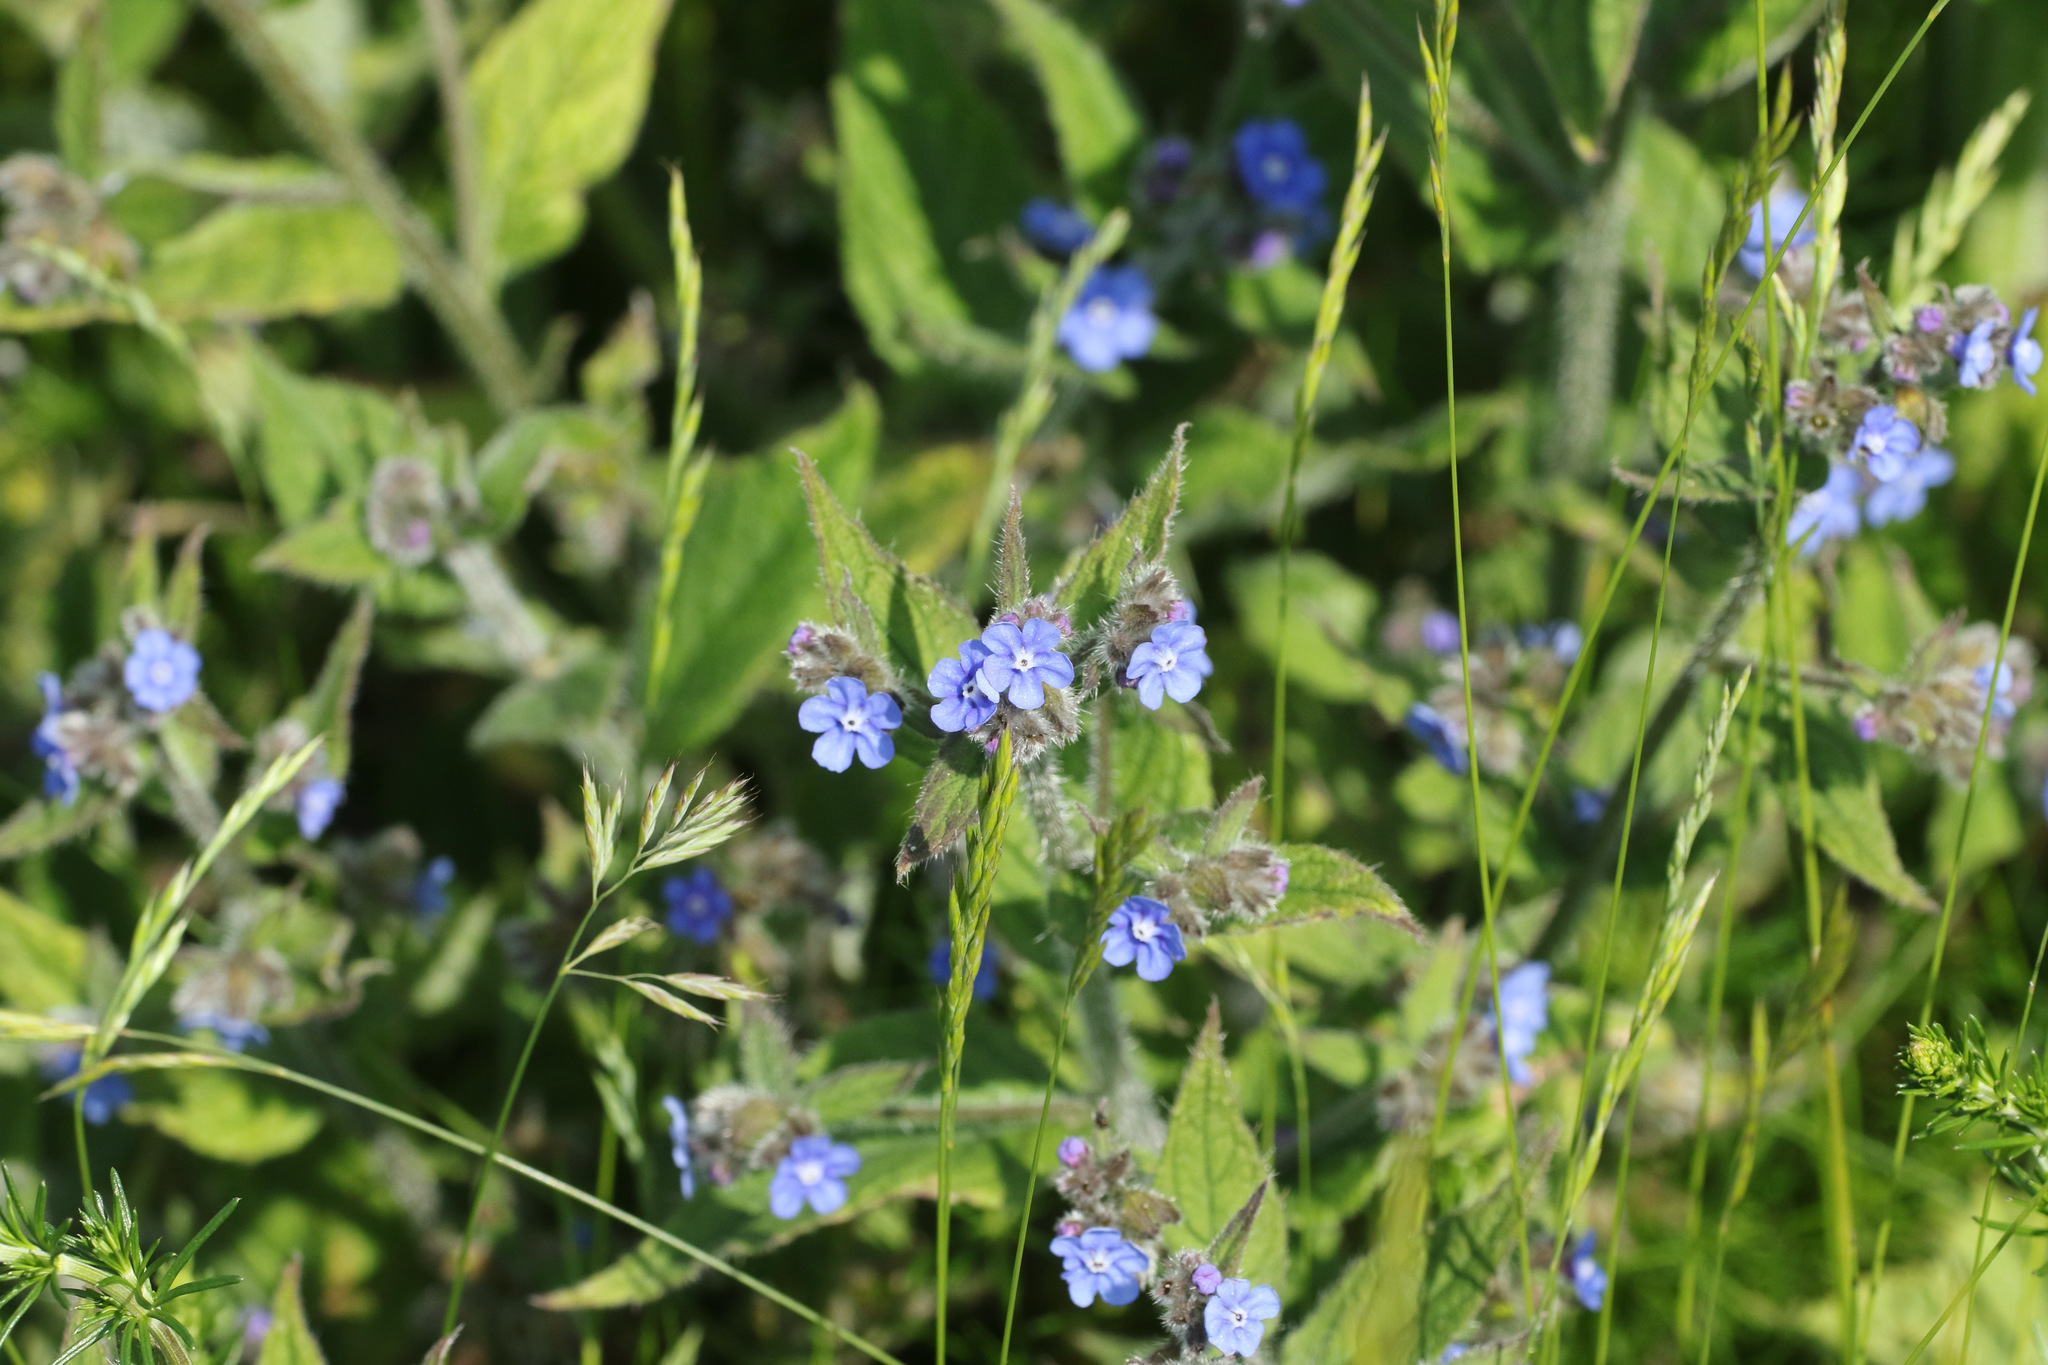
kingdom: Plantae
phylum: Tracheophyta
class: Magnoliopsida
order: Boraginales
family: Boraginaceae
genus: Pentaglottis
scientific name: Pentaglottis sempervirens
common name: Green alkanet
